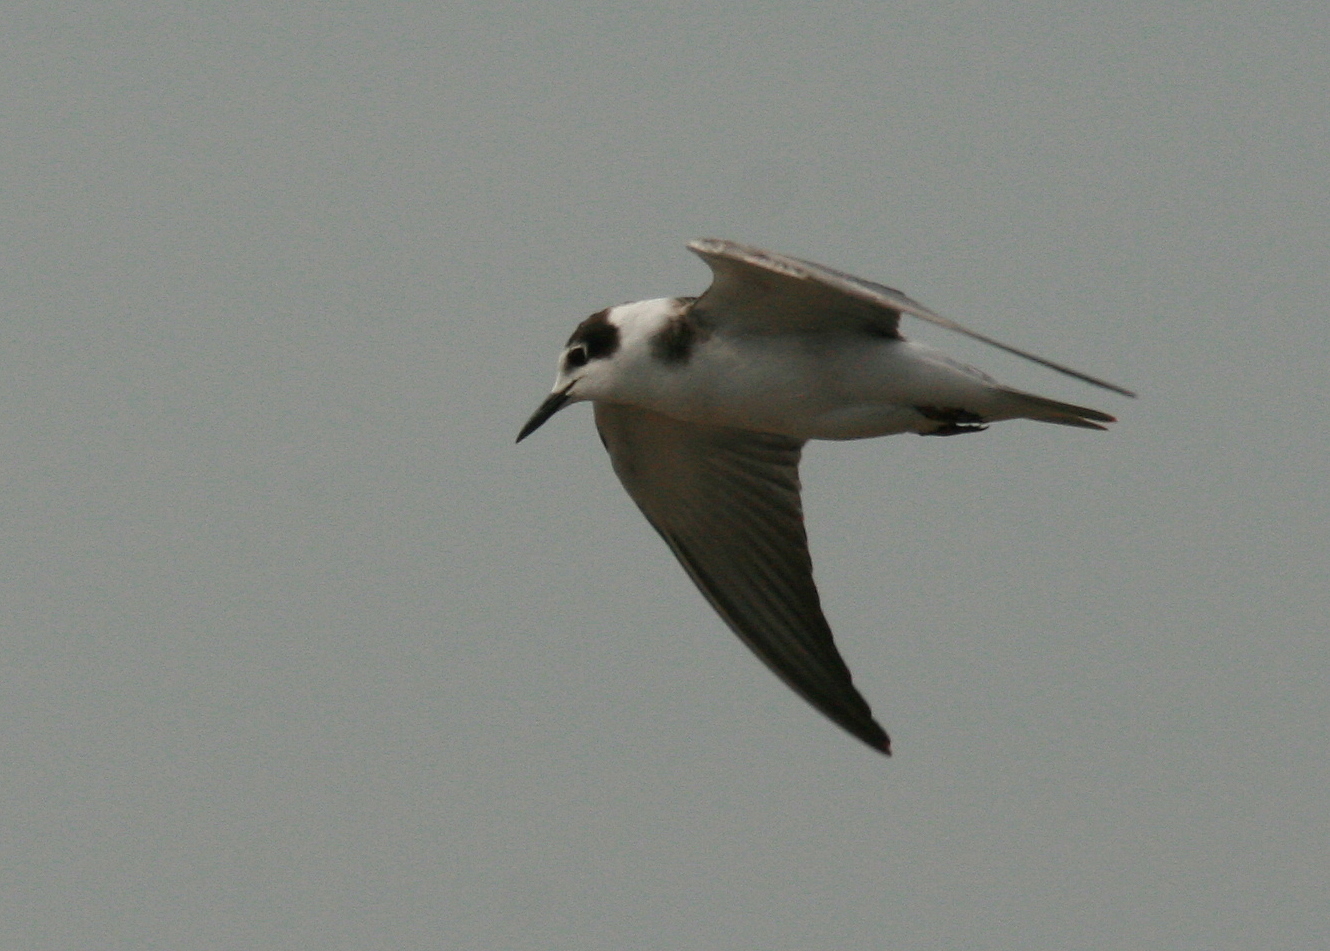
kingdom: Animalia
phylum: Chordata
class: Aves
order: Charadriiformes
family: Laridae
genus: Chlidonias
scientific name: Chlidonias niger
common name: Black tern
